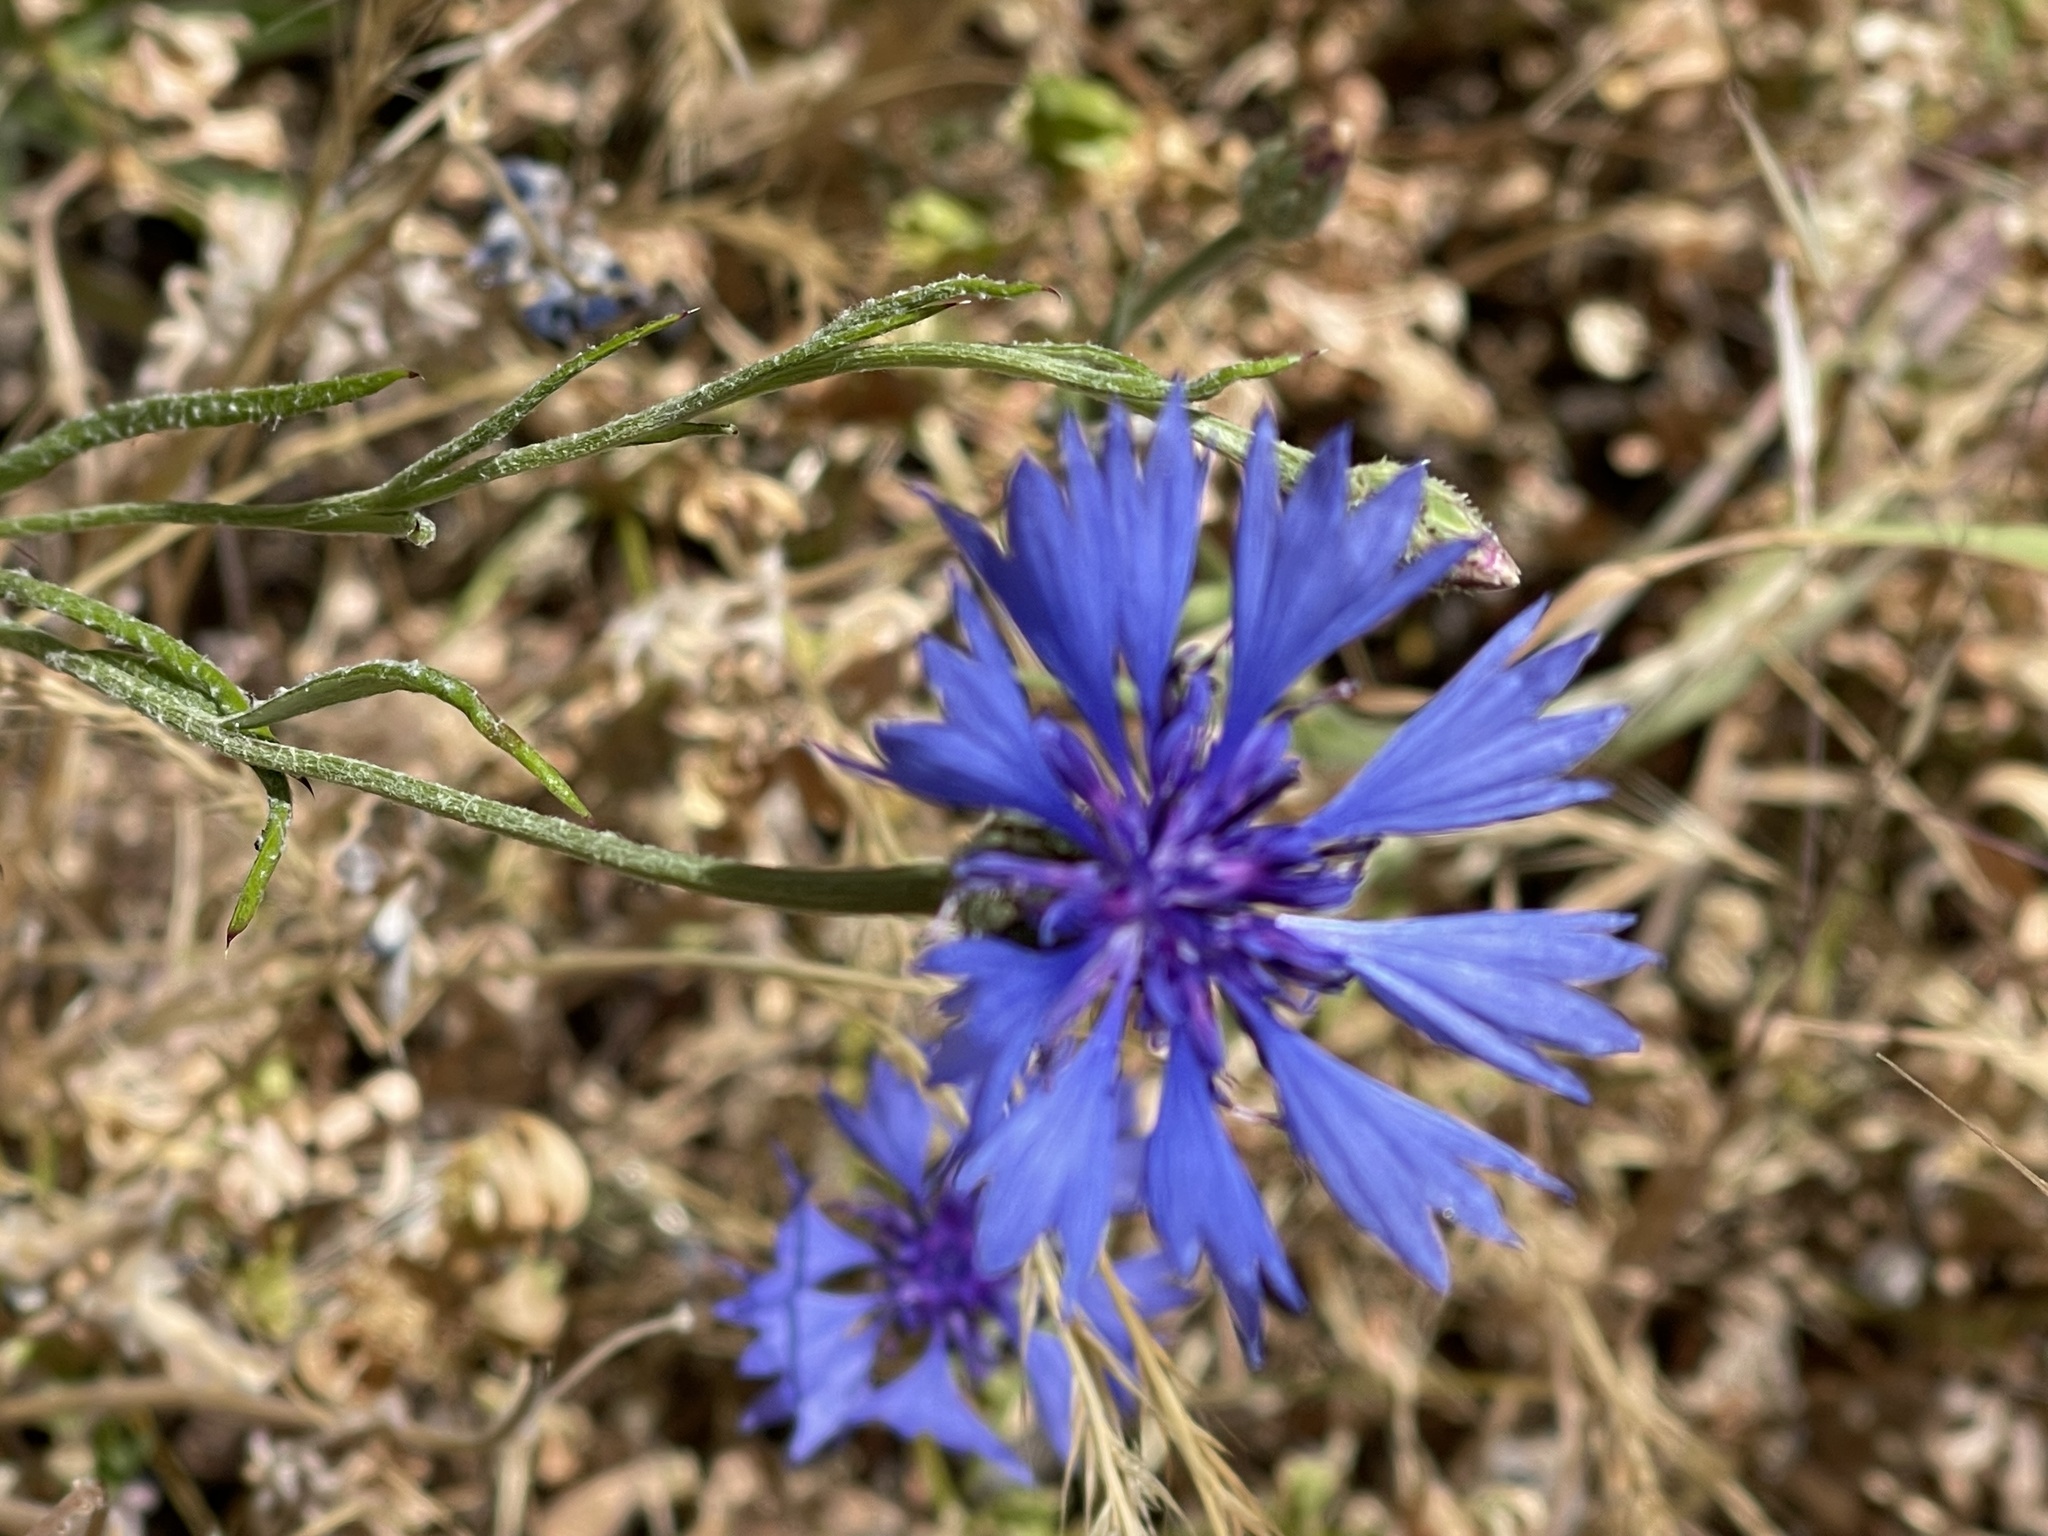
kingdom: Plantae
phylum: Tracheophyta
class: Magnoliopsida
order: Asterales
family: Asteraceae
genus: Centaurea
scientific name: Centaurea cyanus
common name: Cornflower
